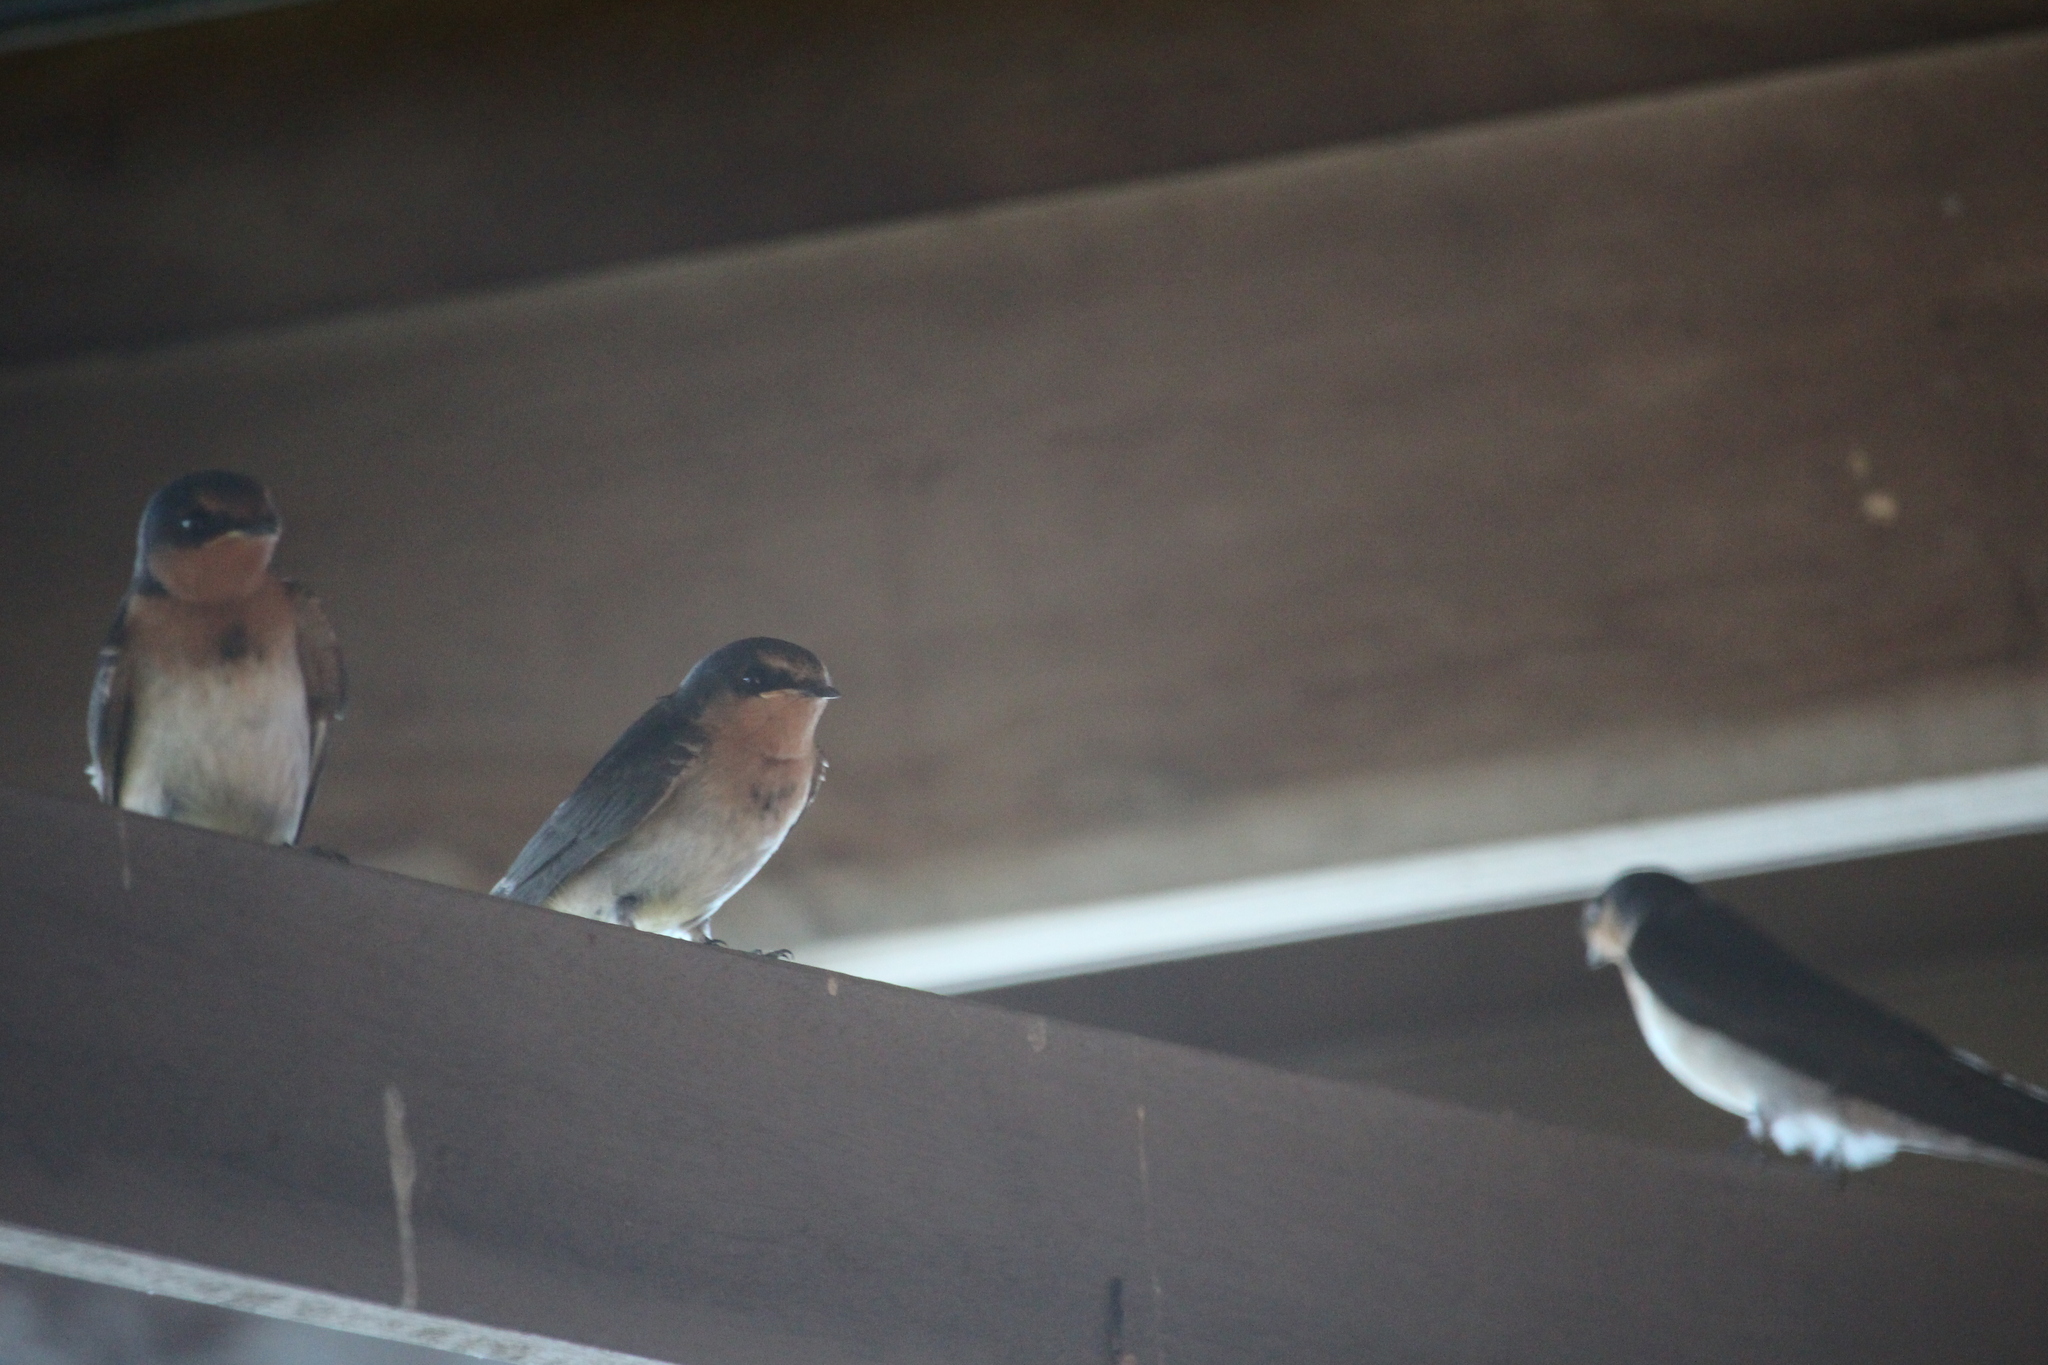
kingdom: Animalia
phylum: Chordata
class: Aves
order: Passeriformes
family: Hirundinidae
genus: Hirundo
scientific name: Hirundo neoxena
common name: Welcome swallow
